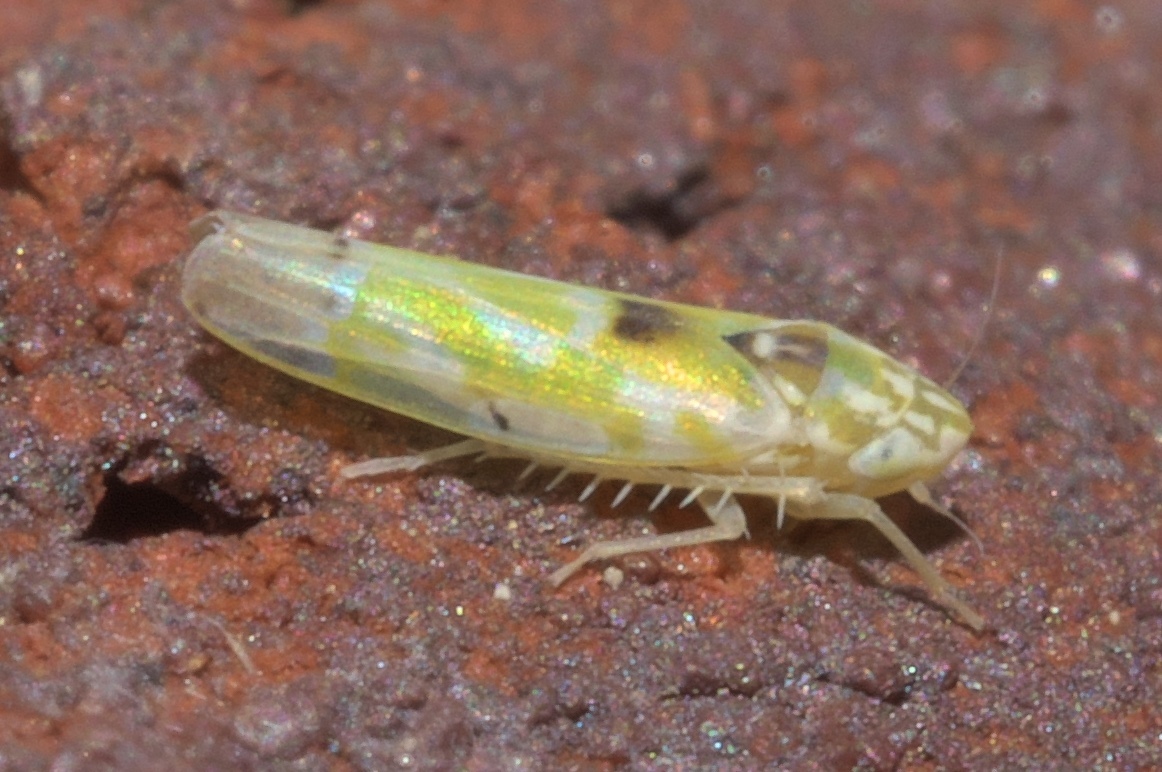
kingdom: Animalia
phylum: Arthropoda
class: Insecta
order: Hemiptera
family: Cicadellidae
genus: Erythroneura
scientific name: Erythroneura octonotata
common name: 8-spotted leafhopper
